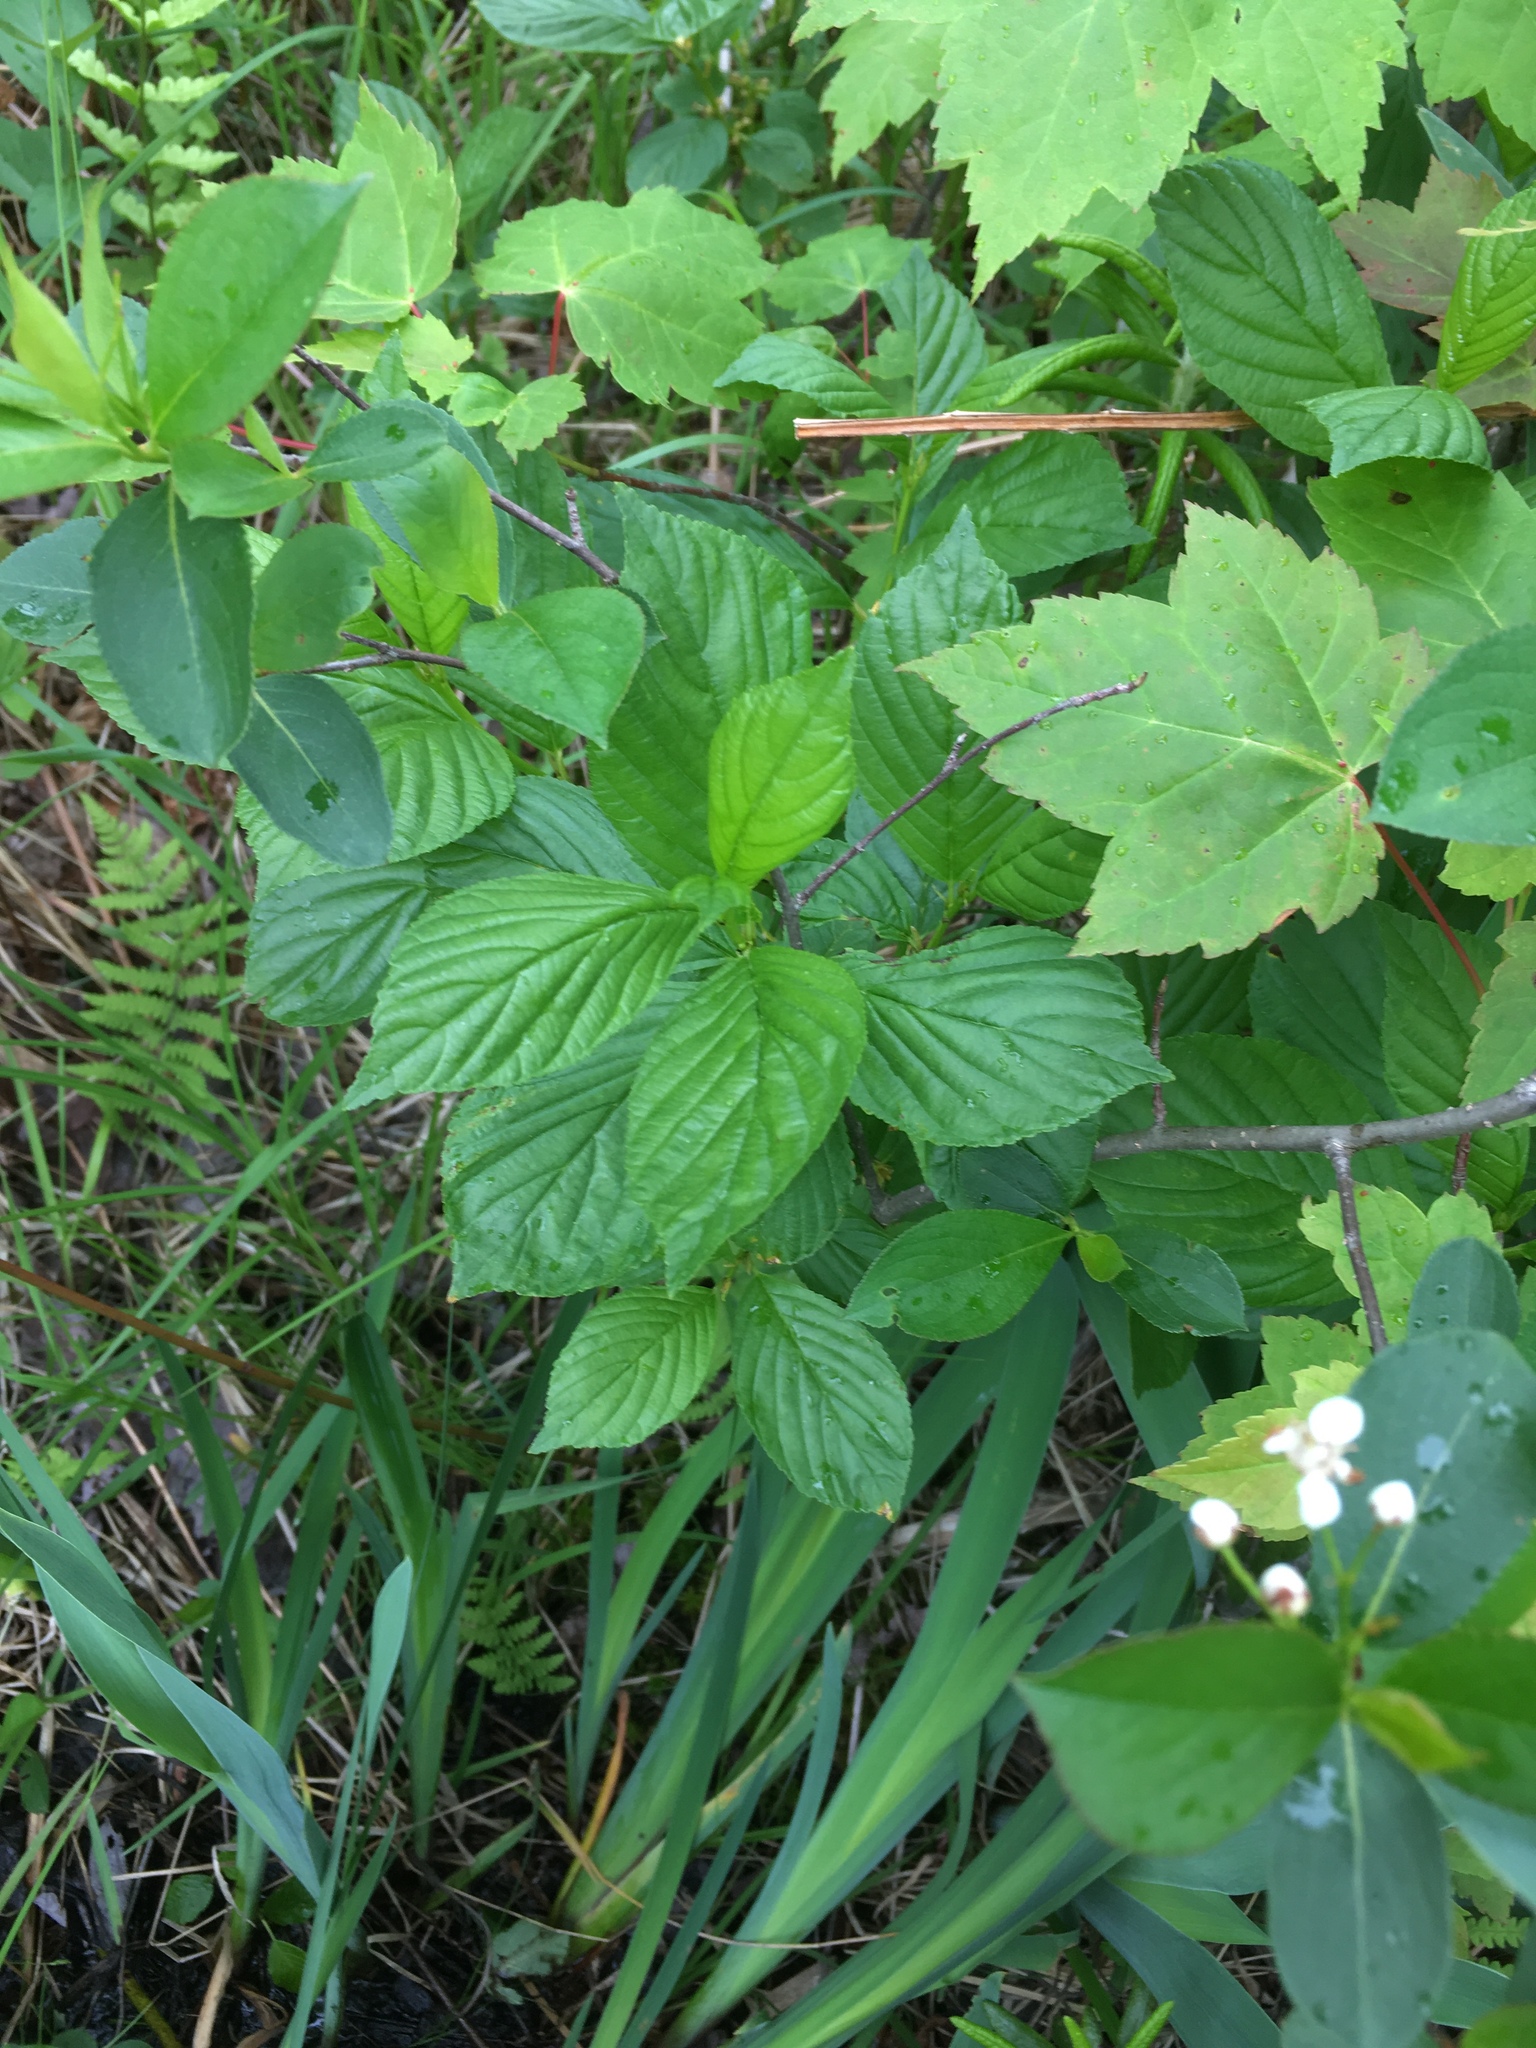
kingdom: Plantae
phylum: Tracheophyta
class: Magnoliopsida
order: Rosales
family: Rhamnaceae
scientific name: Rhamnaceae
